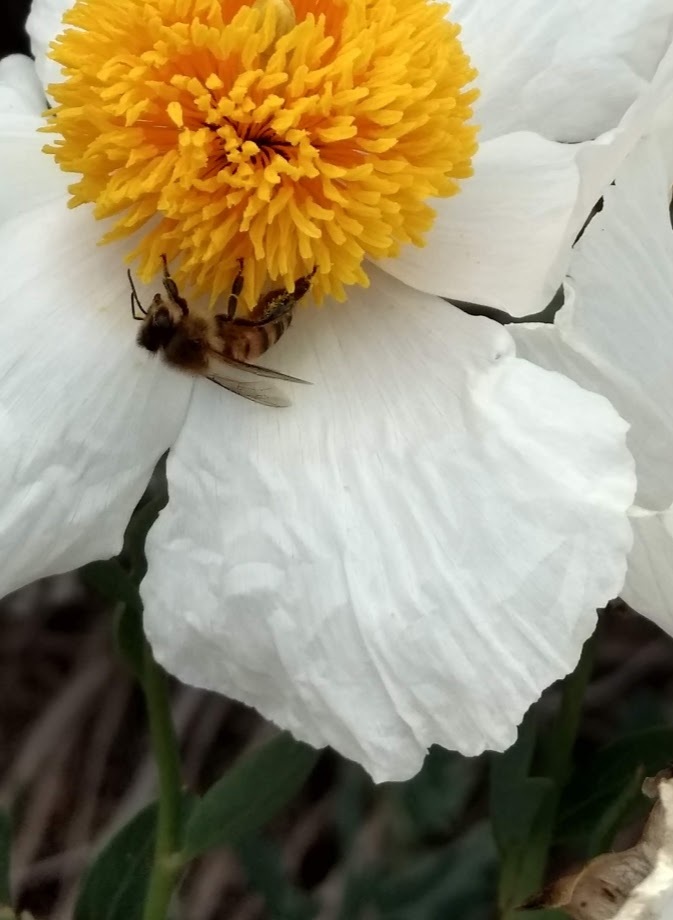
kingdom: Animalia
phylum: Arthropoda
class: Insecta
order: Hymenoptera
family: Apidae
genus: Apis
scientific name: Apis mellifera
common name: Honey bee
